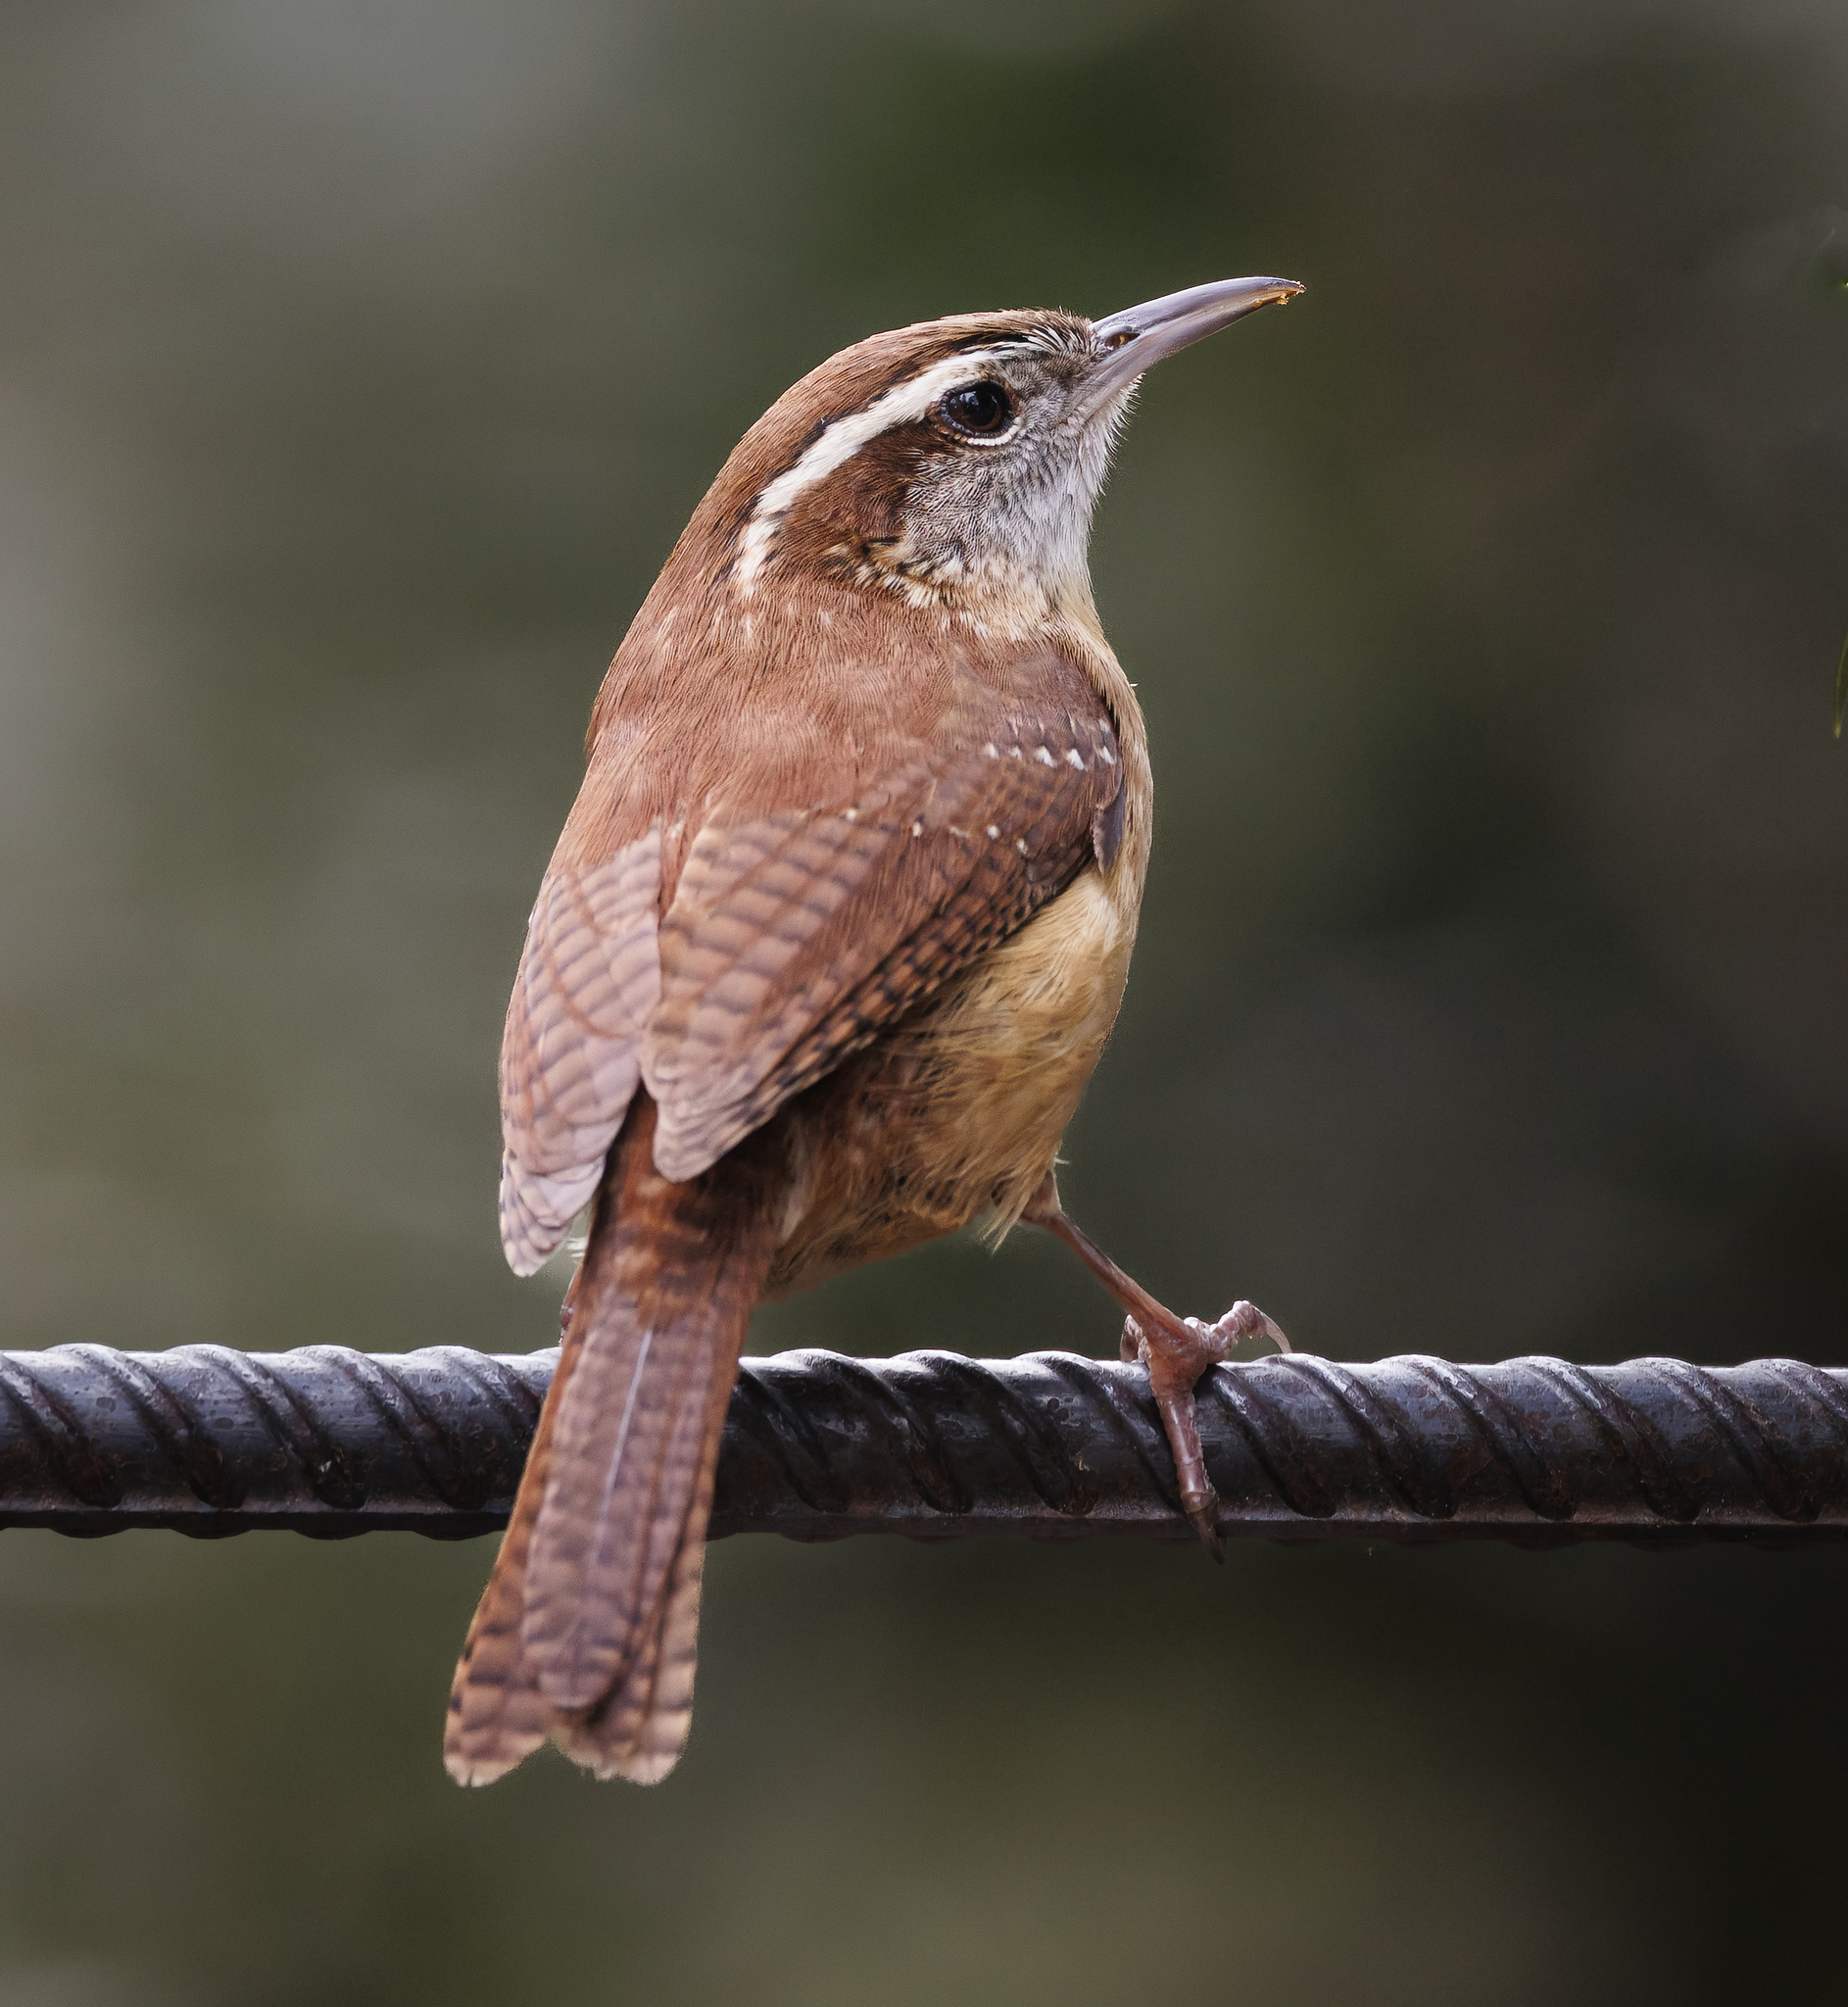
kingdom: Animalia
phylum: Chordata
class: Aves
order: Passeriformes
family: Troglodytidae
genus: Thryothorus
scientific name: Thryothorus ludovicianus
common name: Carolina wren
